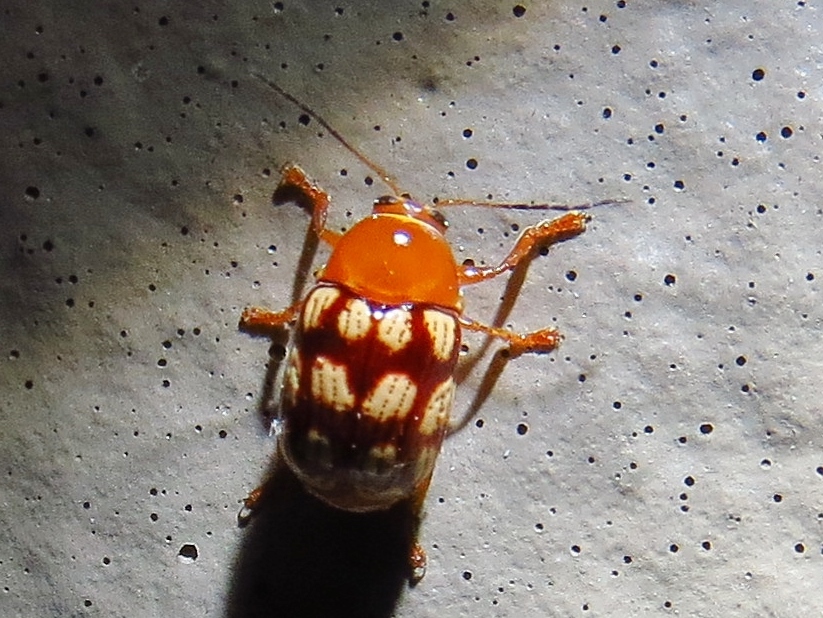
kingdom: Animalia
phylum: Arthropoda
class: Insecta
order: Coleoptera
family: Chrysomelidae
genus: Cryptocephalus
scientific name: Cryptocephalus guttulatus
